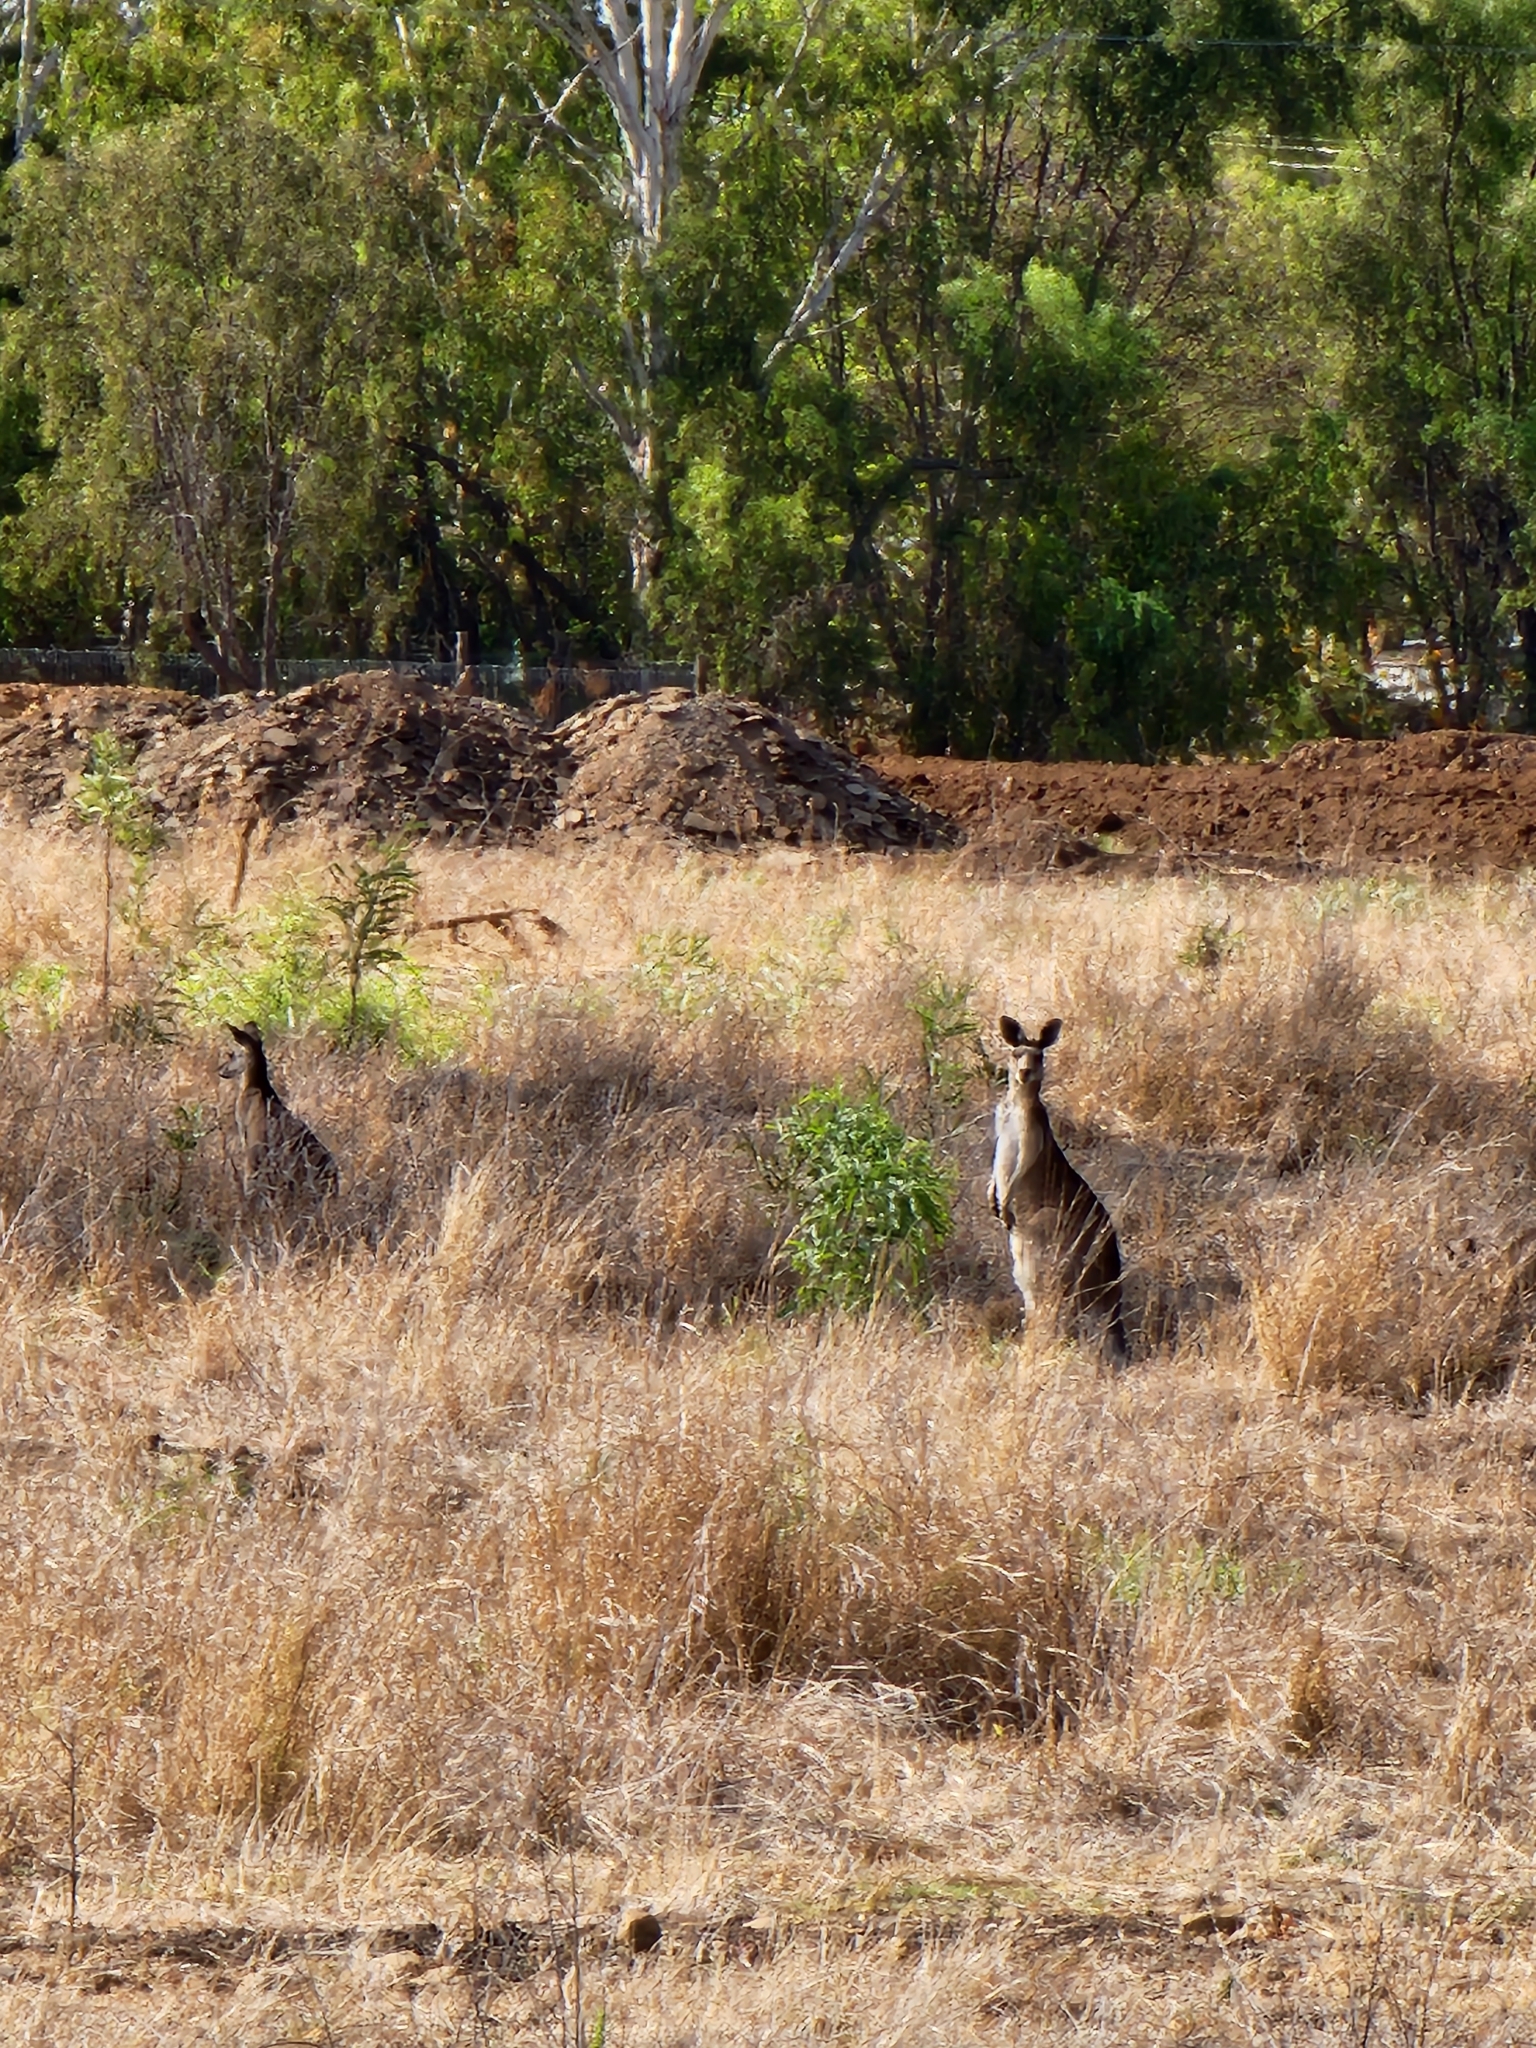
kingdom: Animalia
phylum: Chordata
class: Mammalia
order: Diprotodontia
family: Macropodidae
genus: Macropus
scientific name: Macropus giganteus
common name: Eastern grey kangaroo
